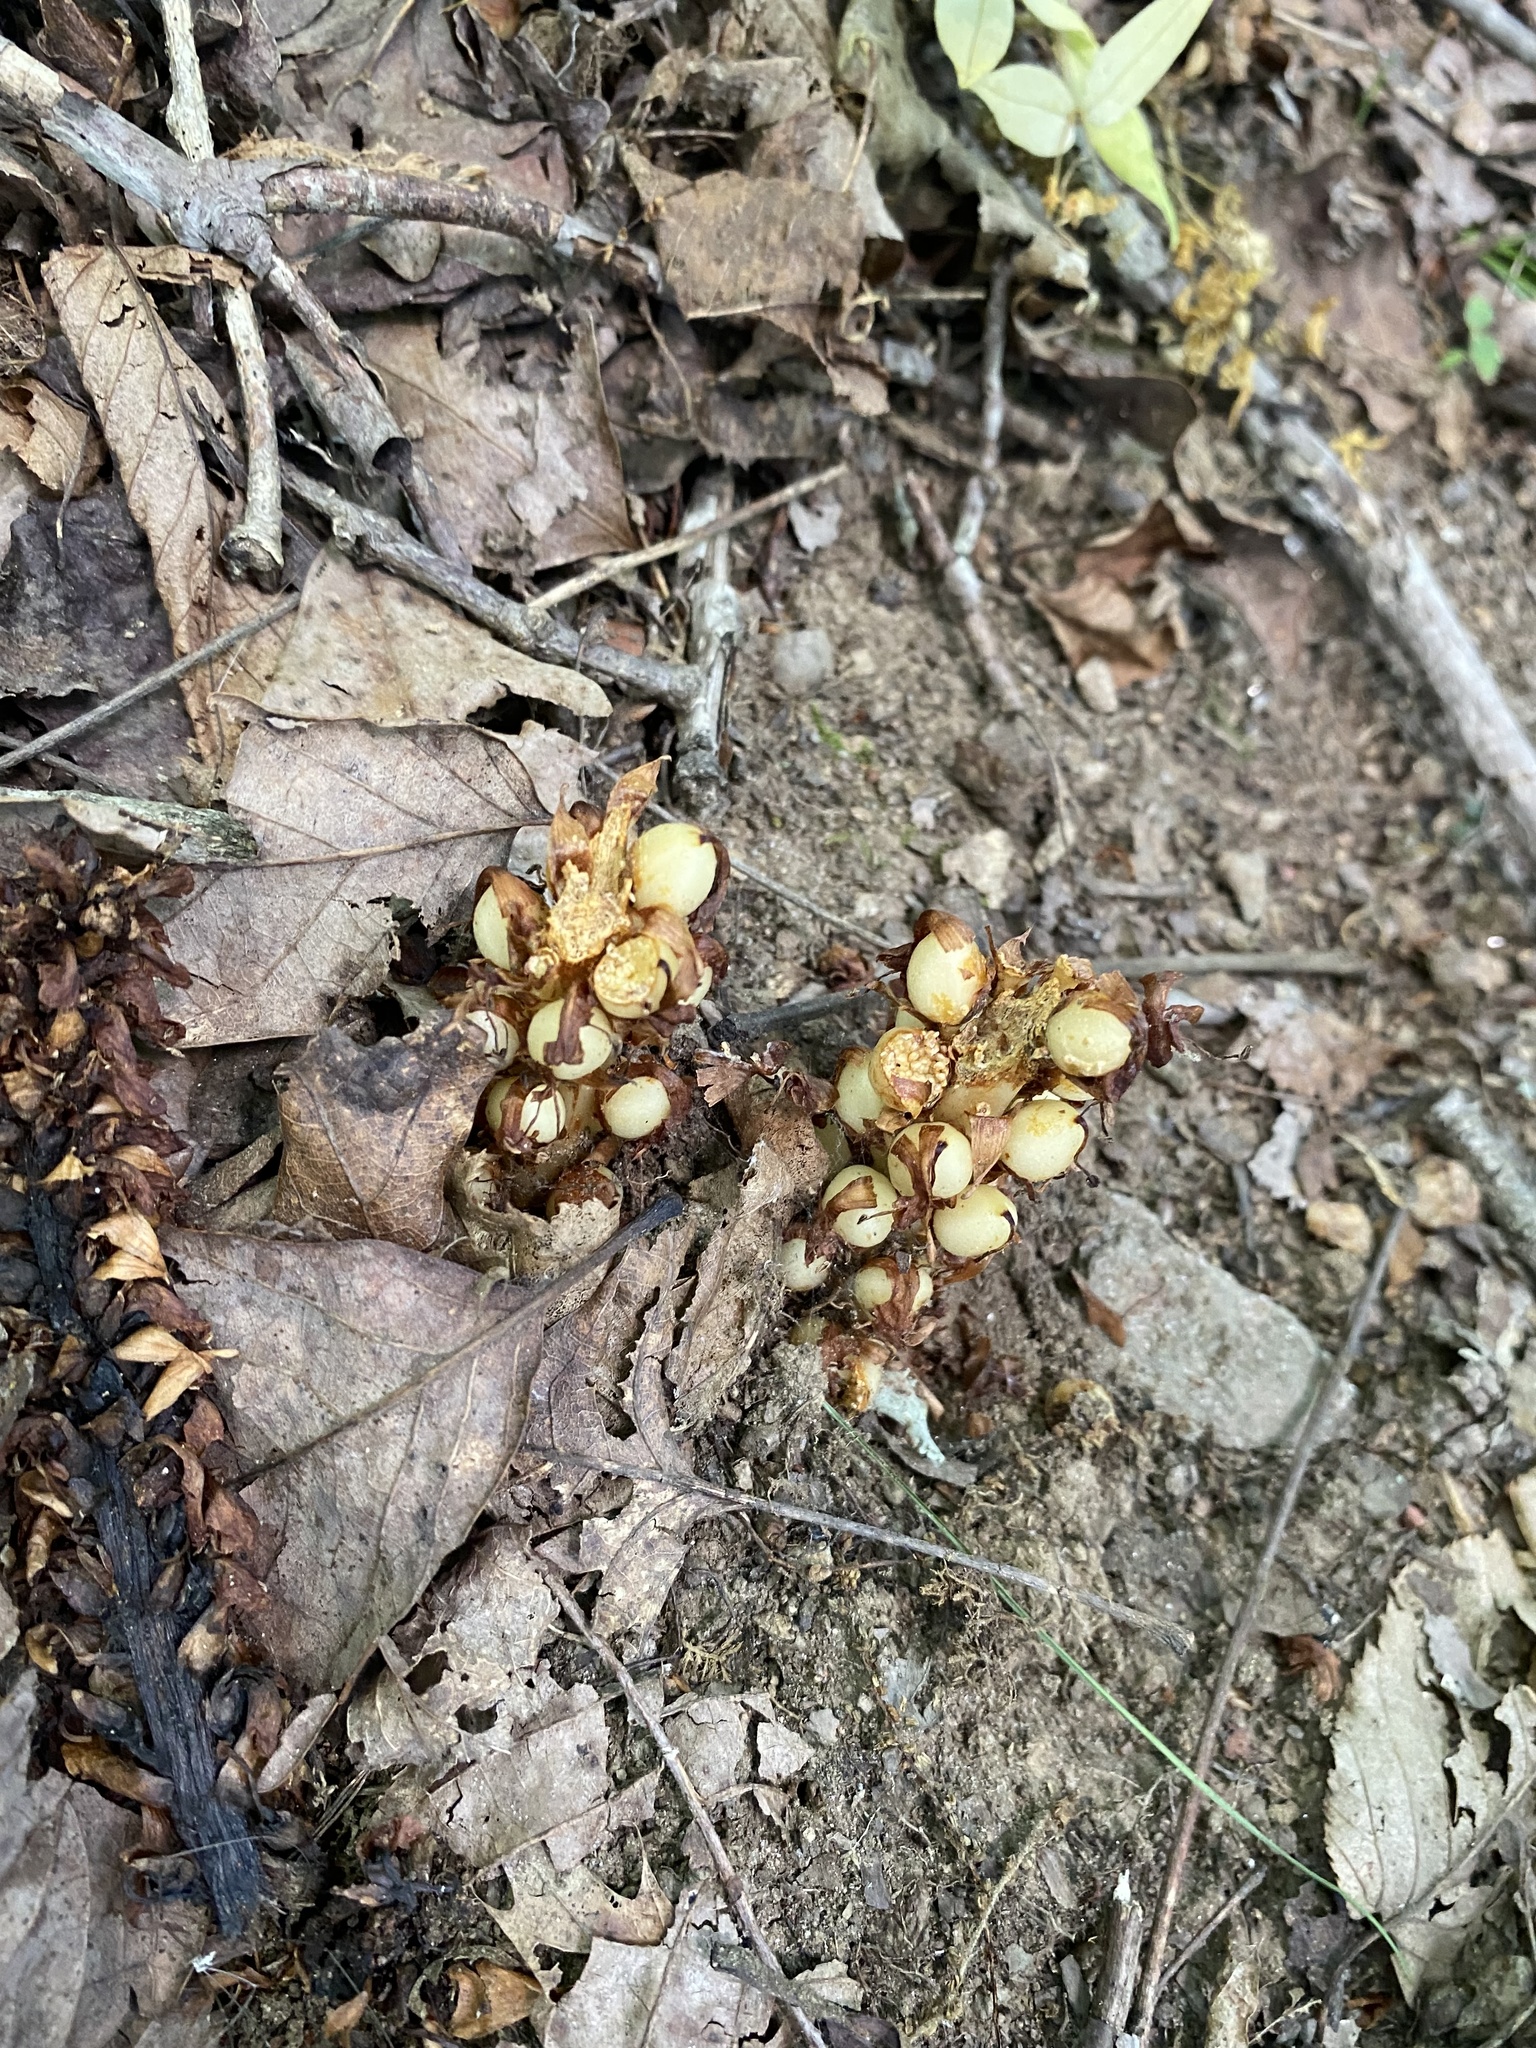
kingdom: Plantae
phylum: Tracheophyta
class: Magnoliopsida
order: Lamiales
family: Orobanchaceae
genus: Conopholis
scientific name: Conopholis americana
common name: American cancer-root
